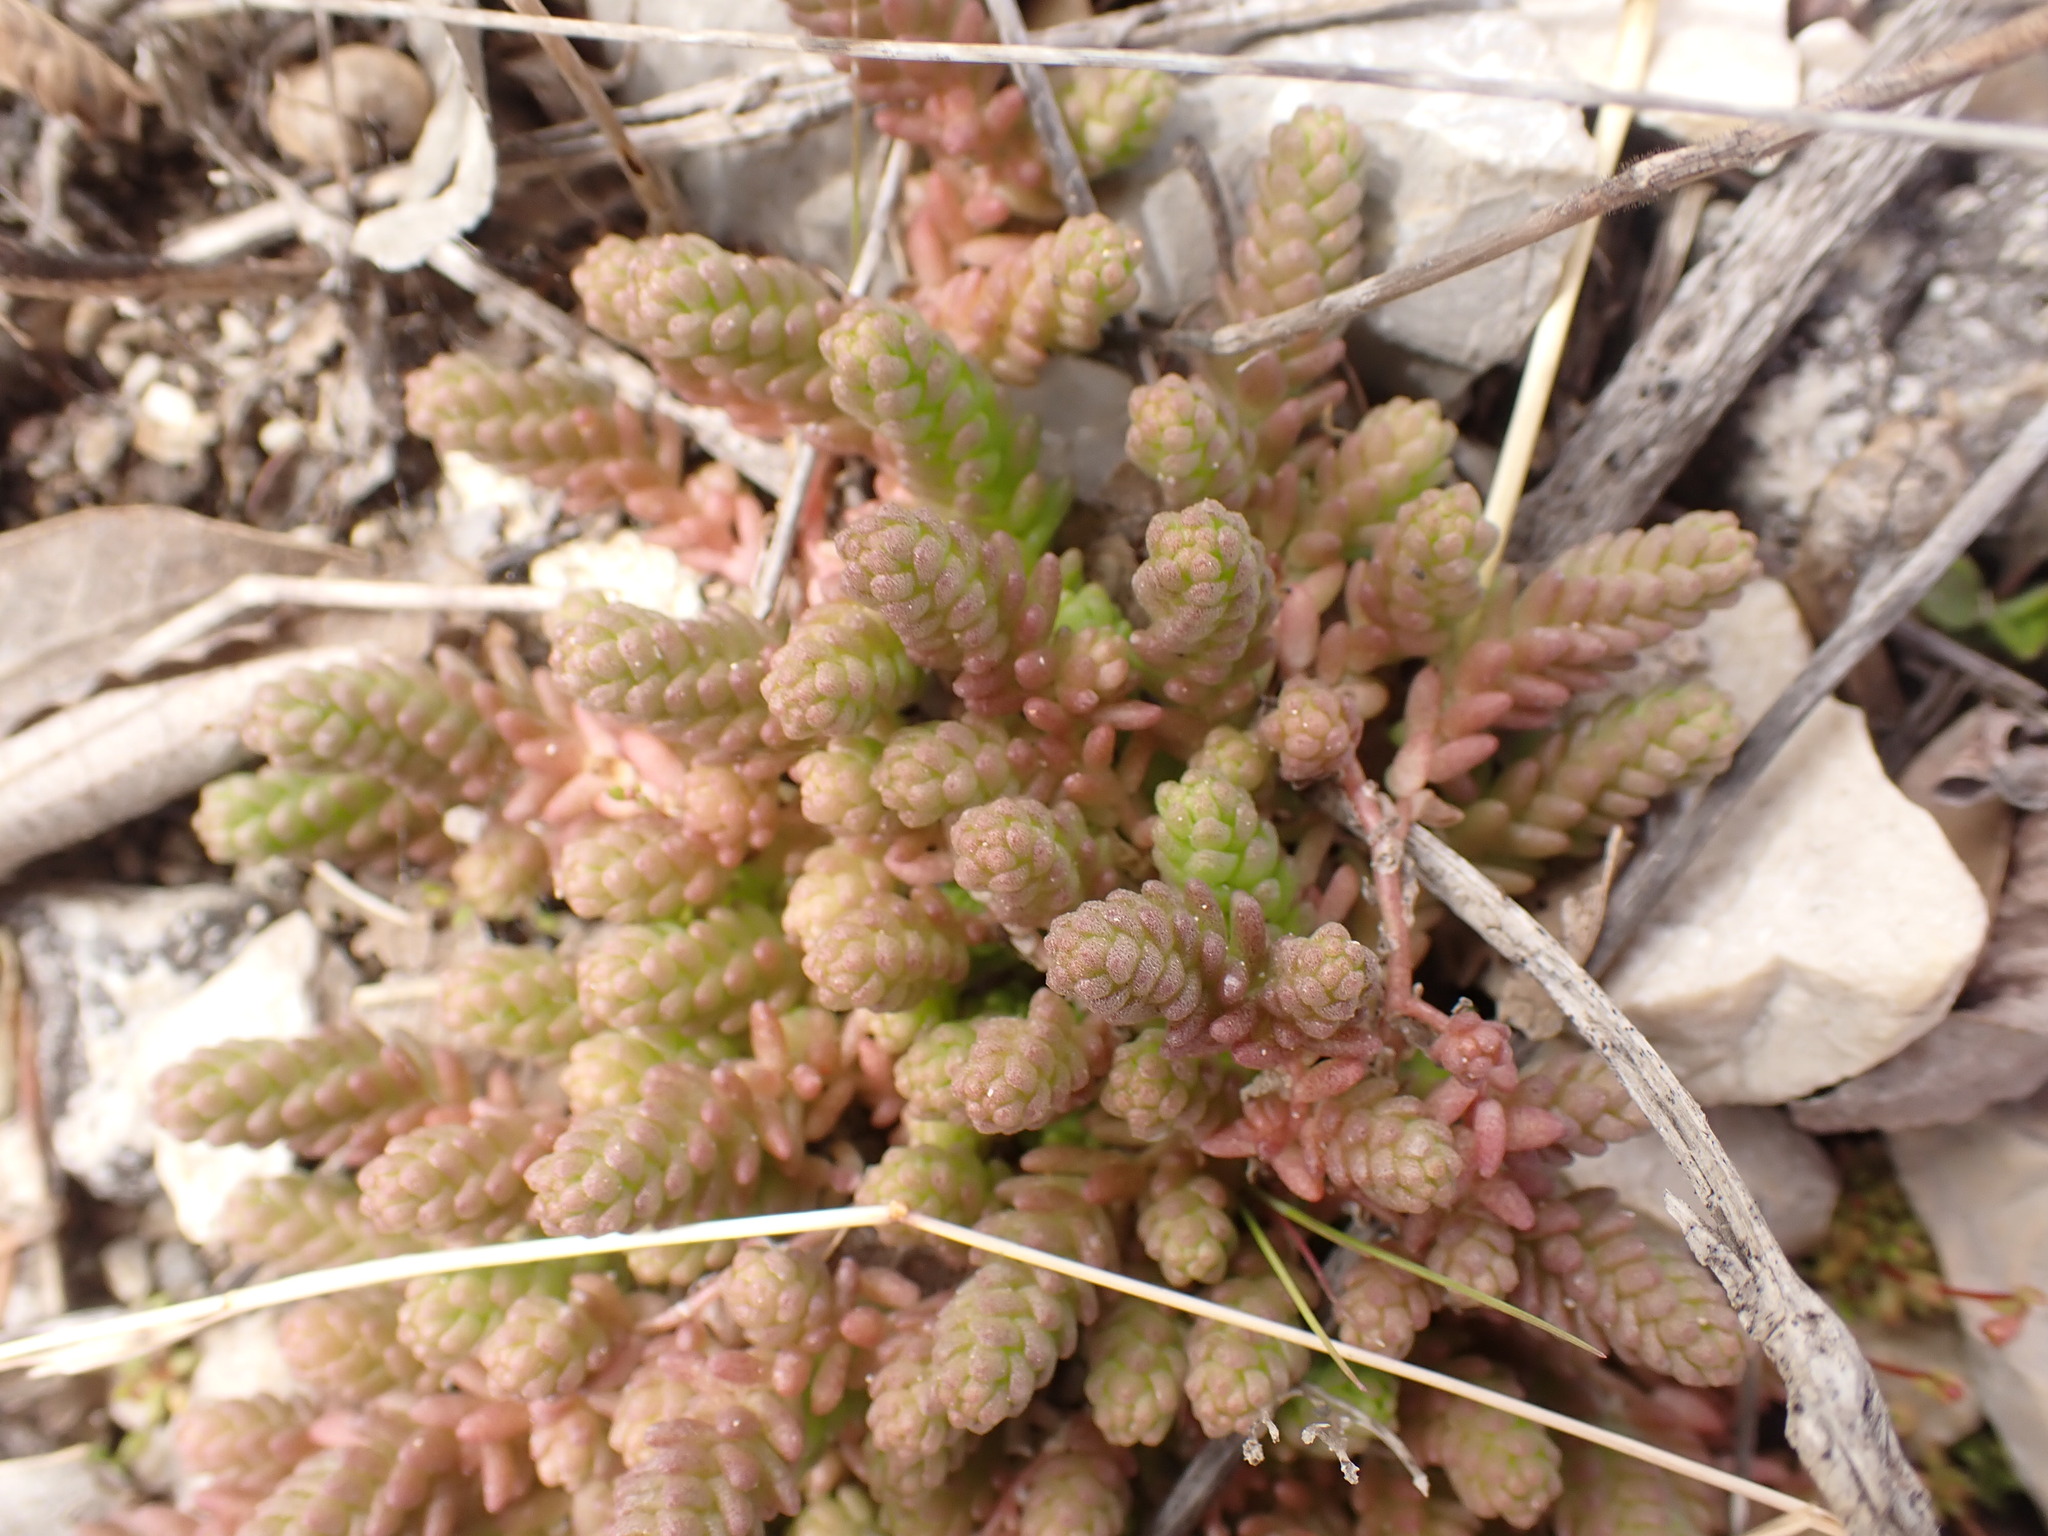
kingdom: Plantae
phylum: Tracheophyta
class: Magnoliopsida
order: Saxifragales
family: Crassulaceae
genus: Sedum
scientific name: Sedum acre
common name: Biting stonecrop
